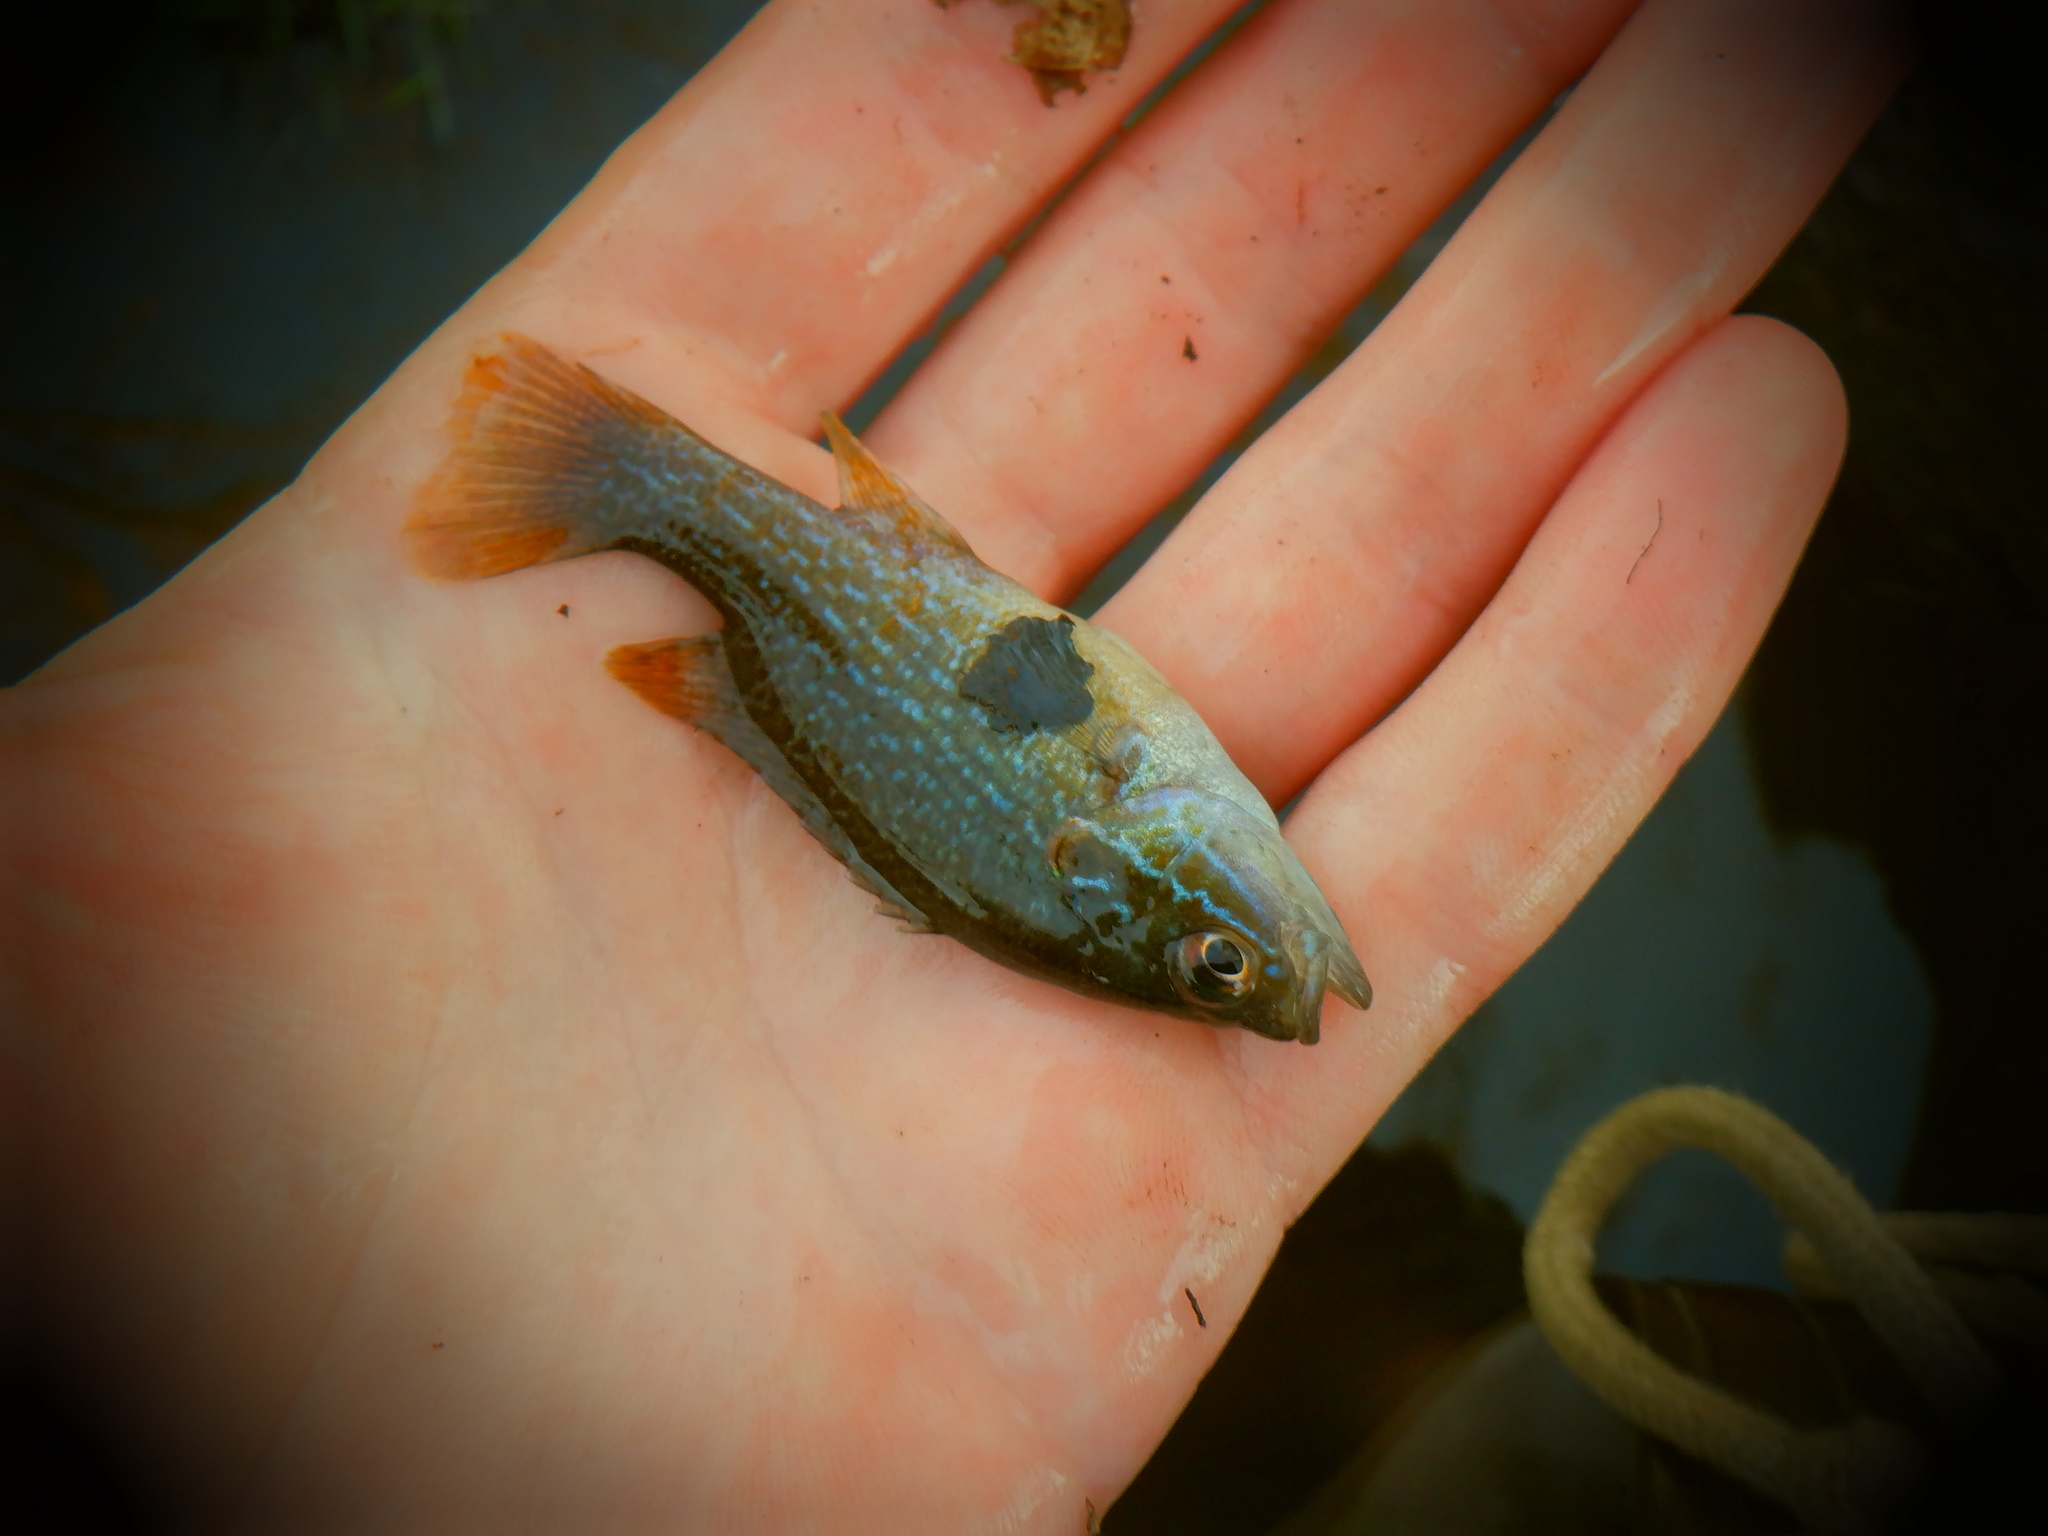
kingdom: Animalia
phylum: Chordata
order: Perciformes
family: Centrarchidae
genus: Lepomis
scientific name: Lepomis cyanellus
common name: Green sunfish
